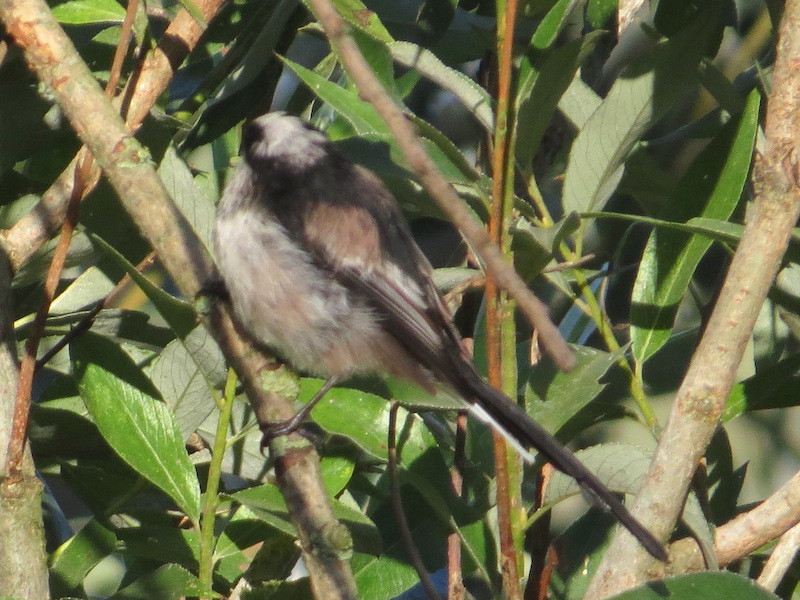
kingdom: Animalia
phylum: Chordata
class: Aves
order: Passeriformes
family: Aegithalidae
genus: Aegithalos
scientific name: Aegithalos caudatus
